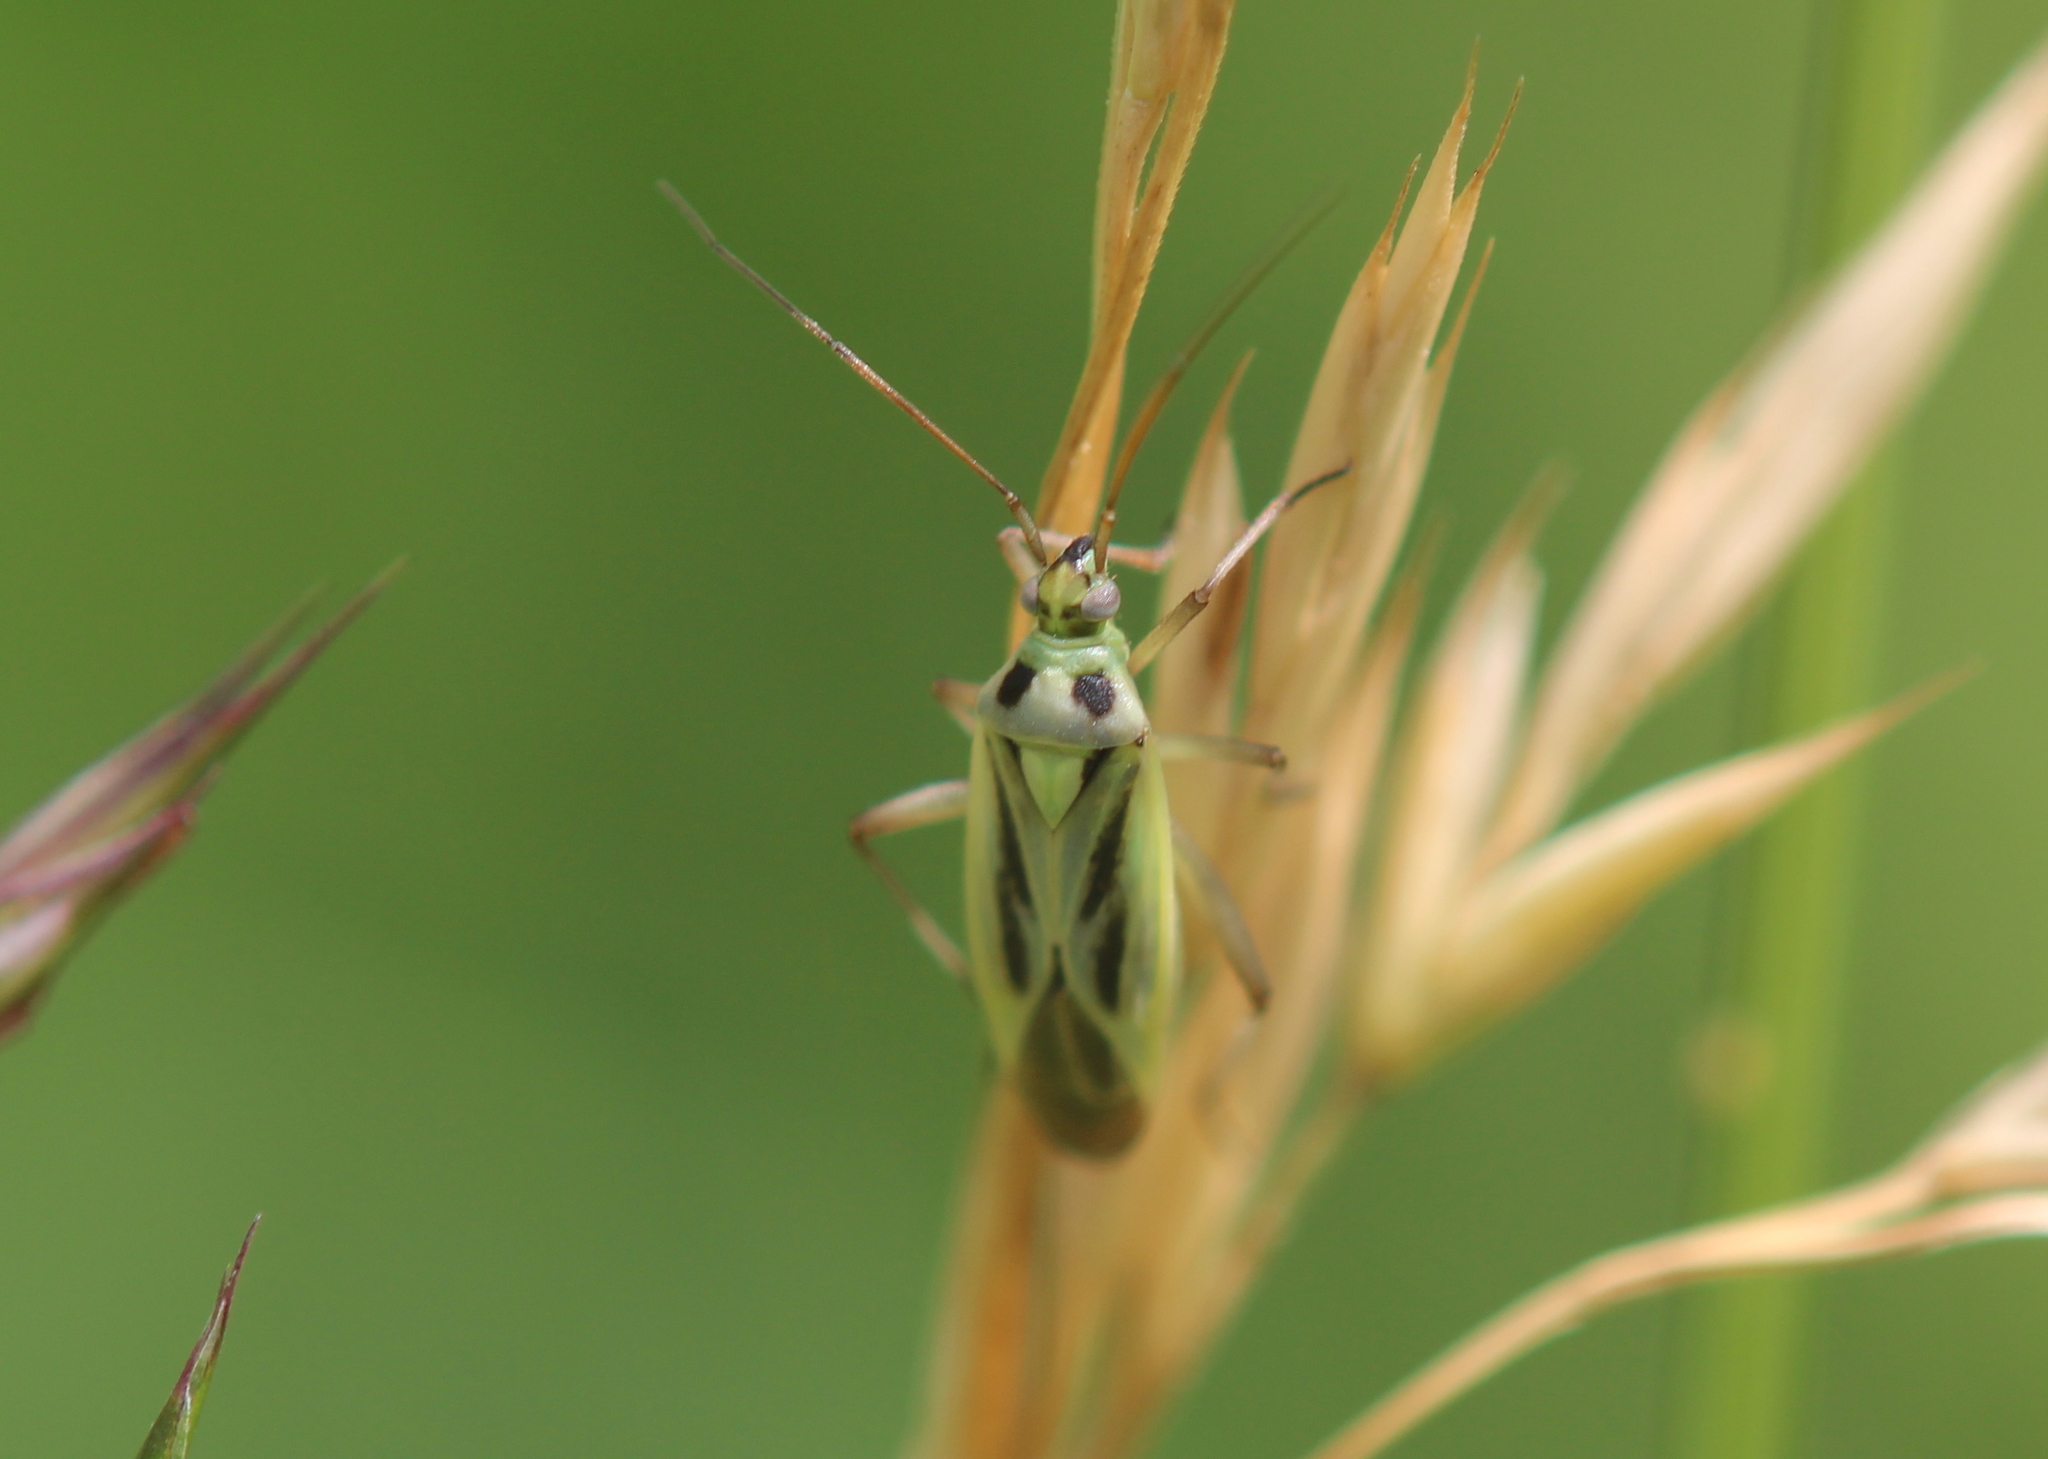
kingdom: Animalia
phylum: Arthropoda
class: Insecta
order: Hemiptera
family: Miridae
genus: Stenotus
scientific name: Stenotus binotatus
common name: Plant bug
